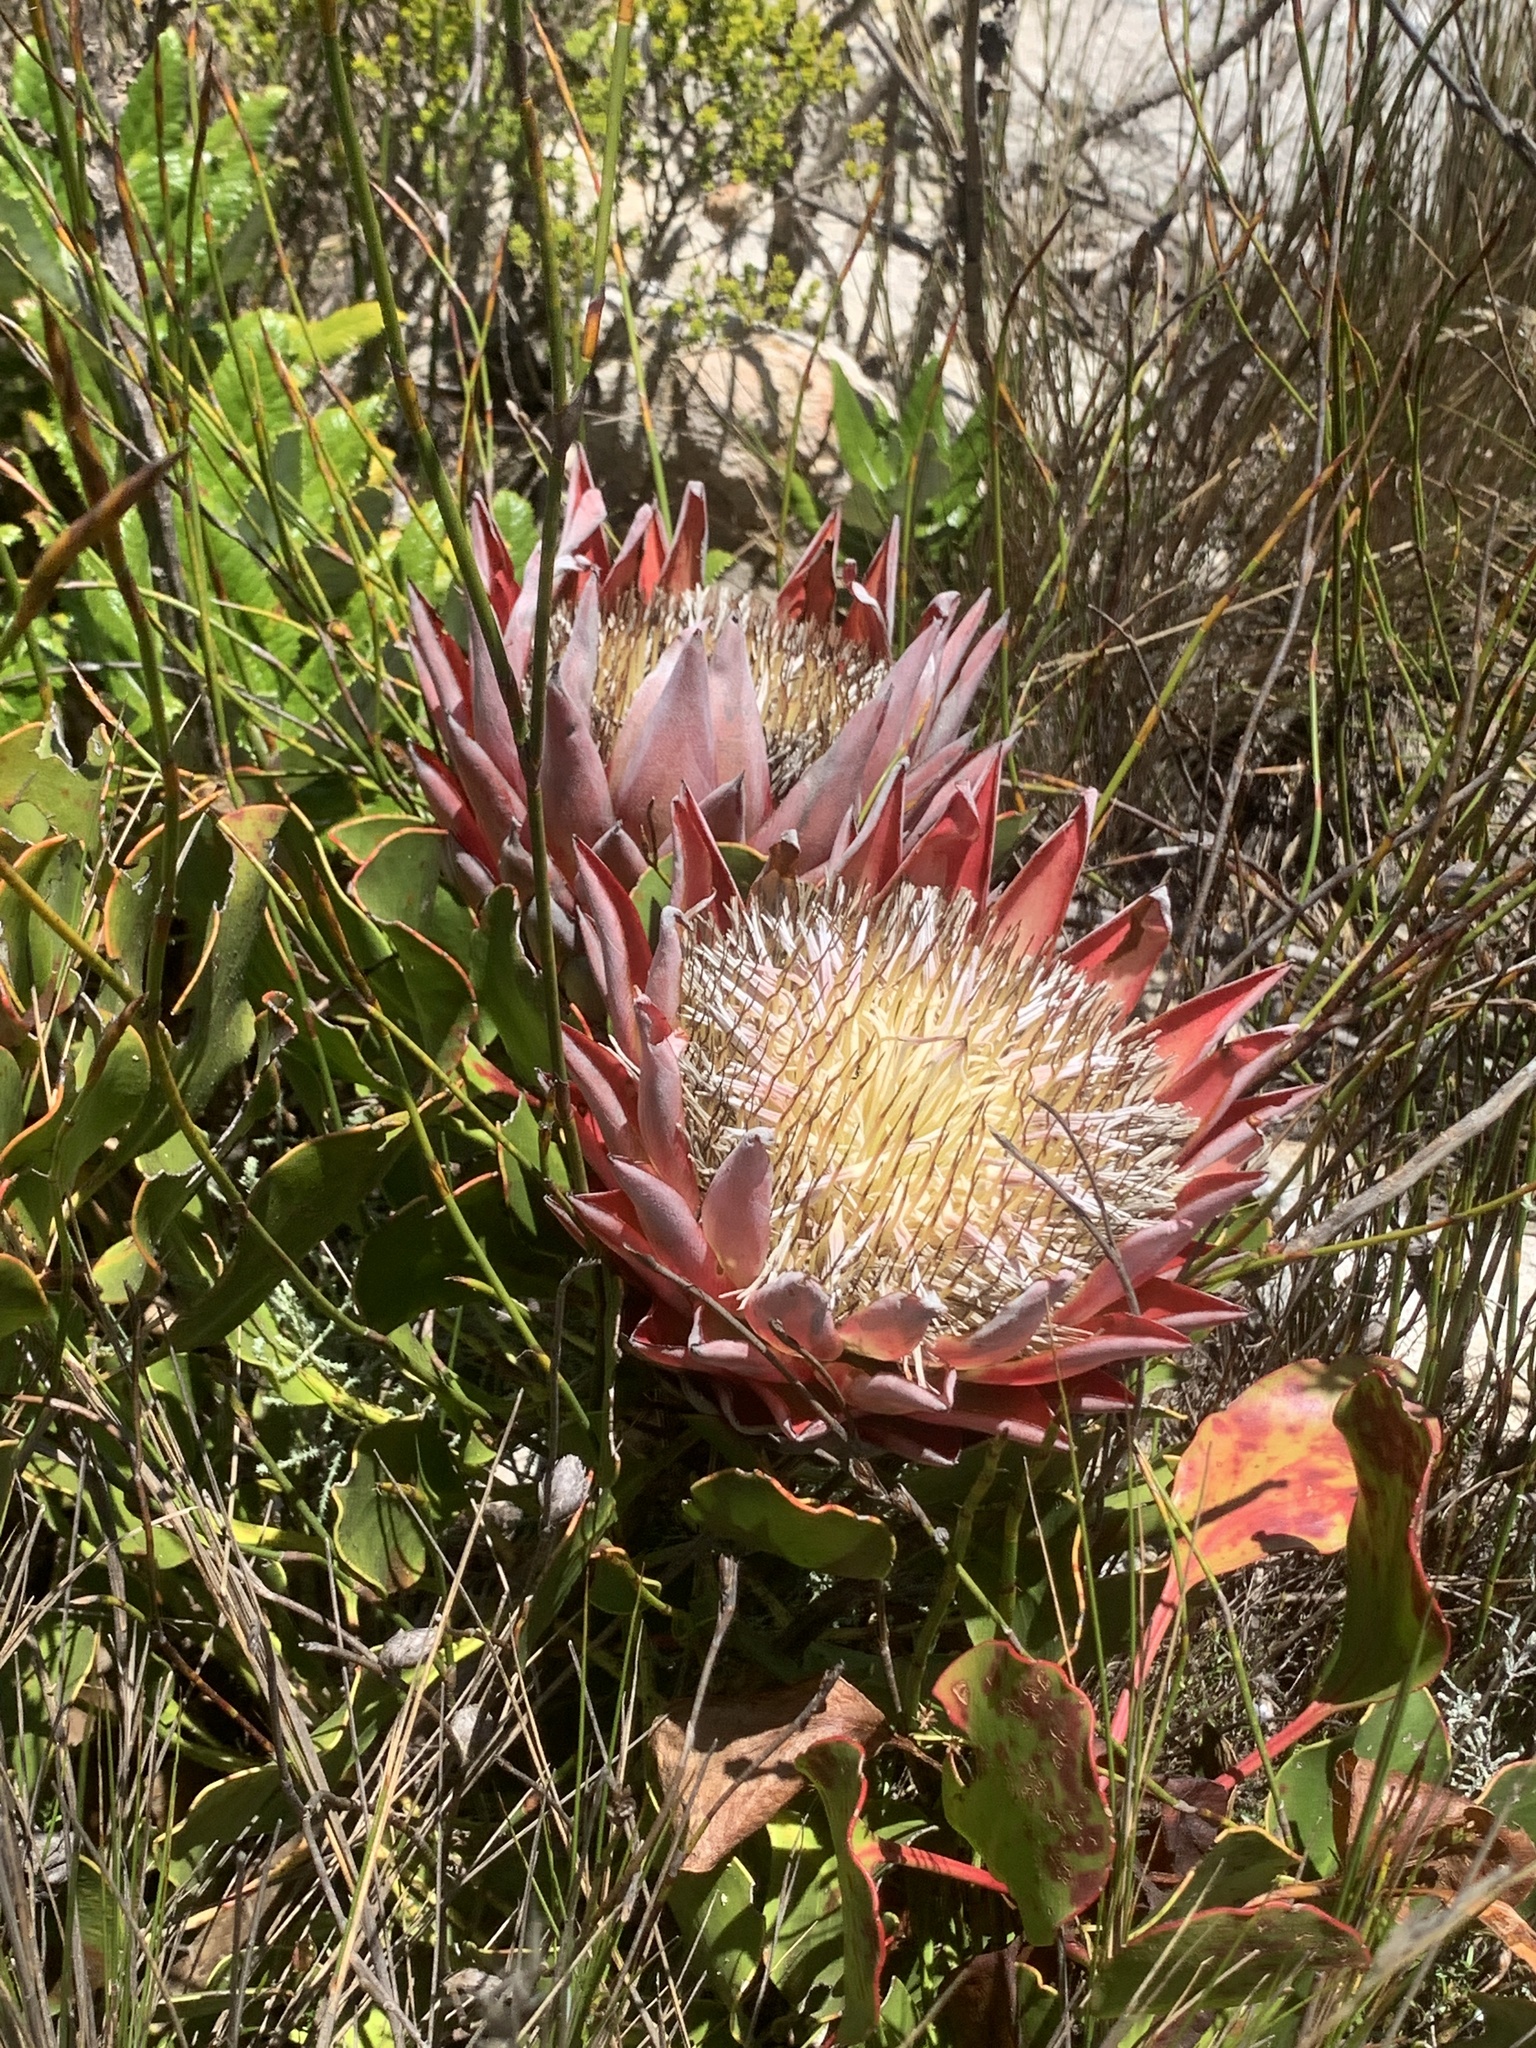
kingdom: Plantae
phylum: Tracheophyta
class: Magnoliopsida
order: Proteales
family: Proteaceae
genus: Protea
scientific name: Protea cynaroides
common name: King protea
